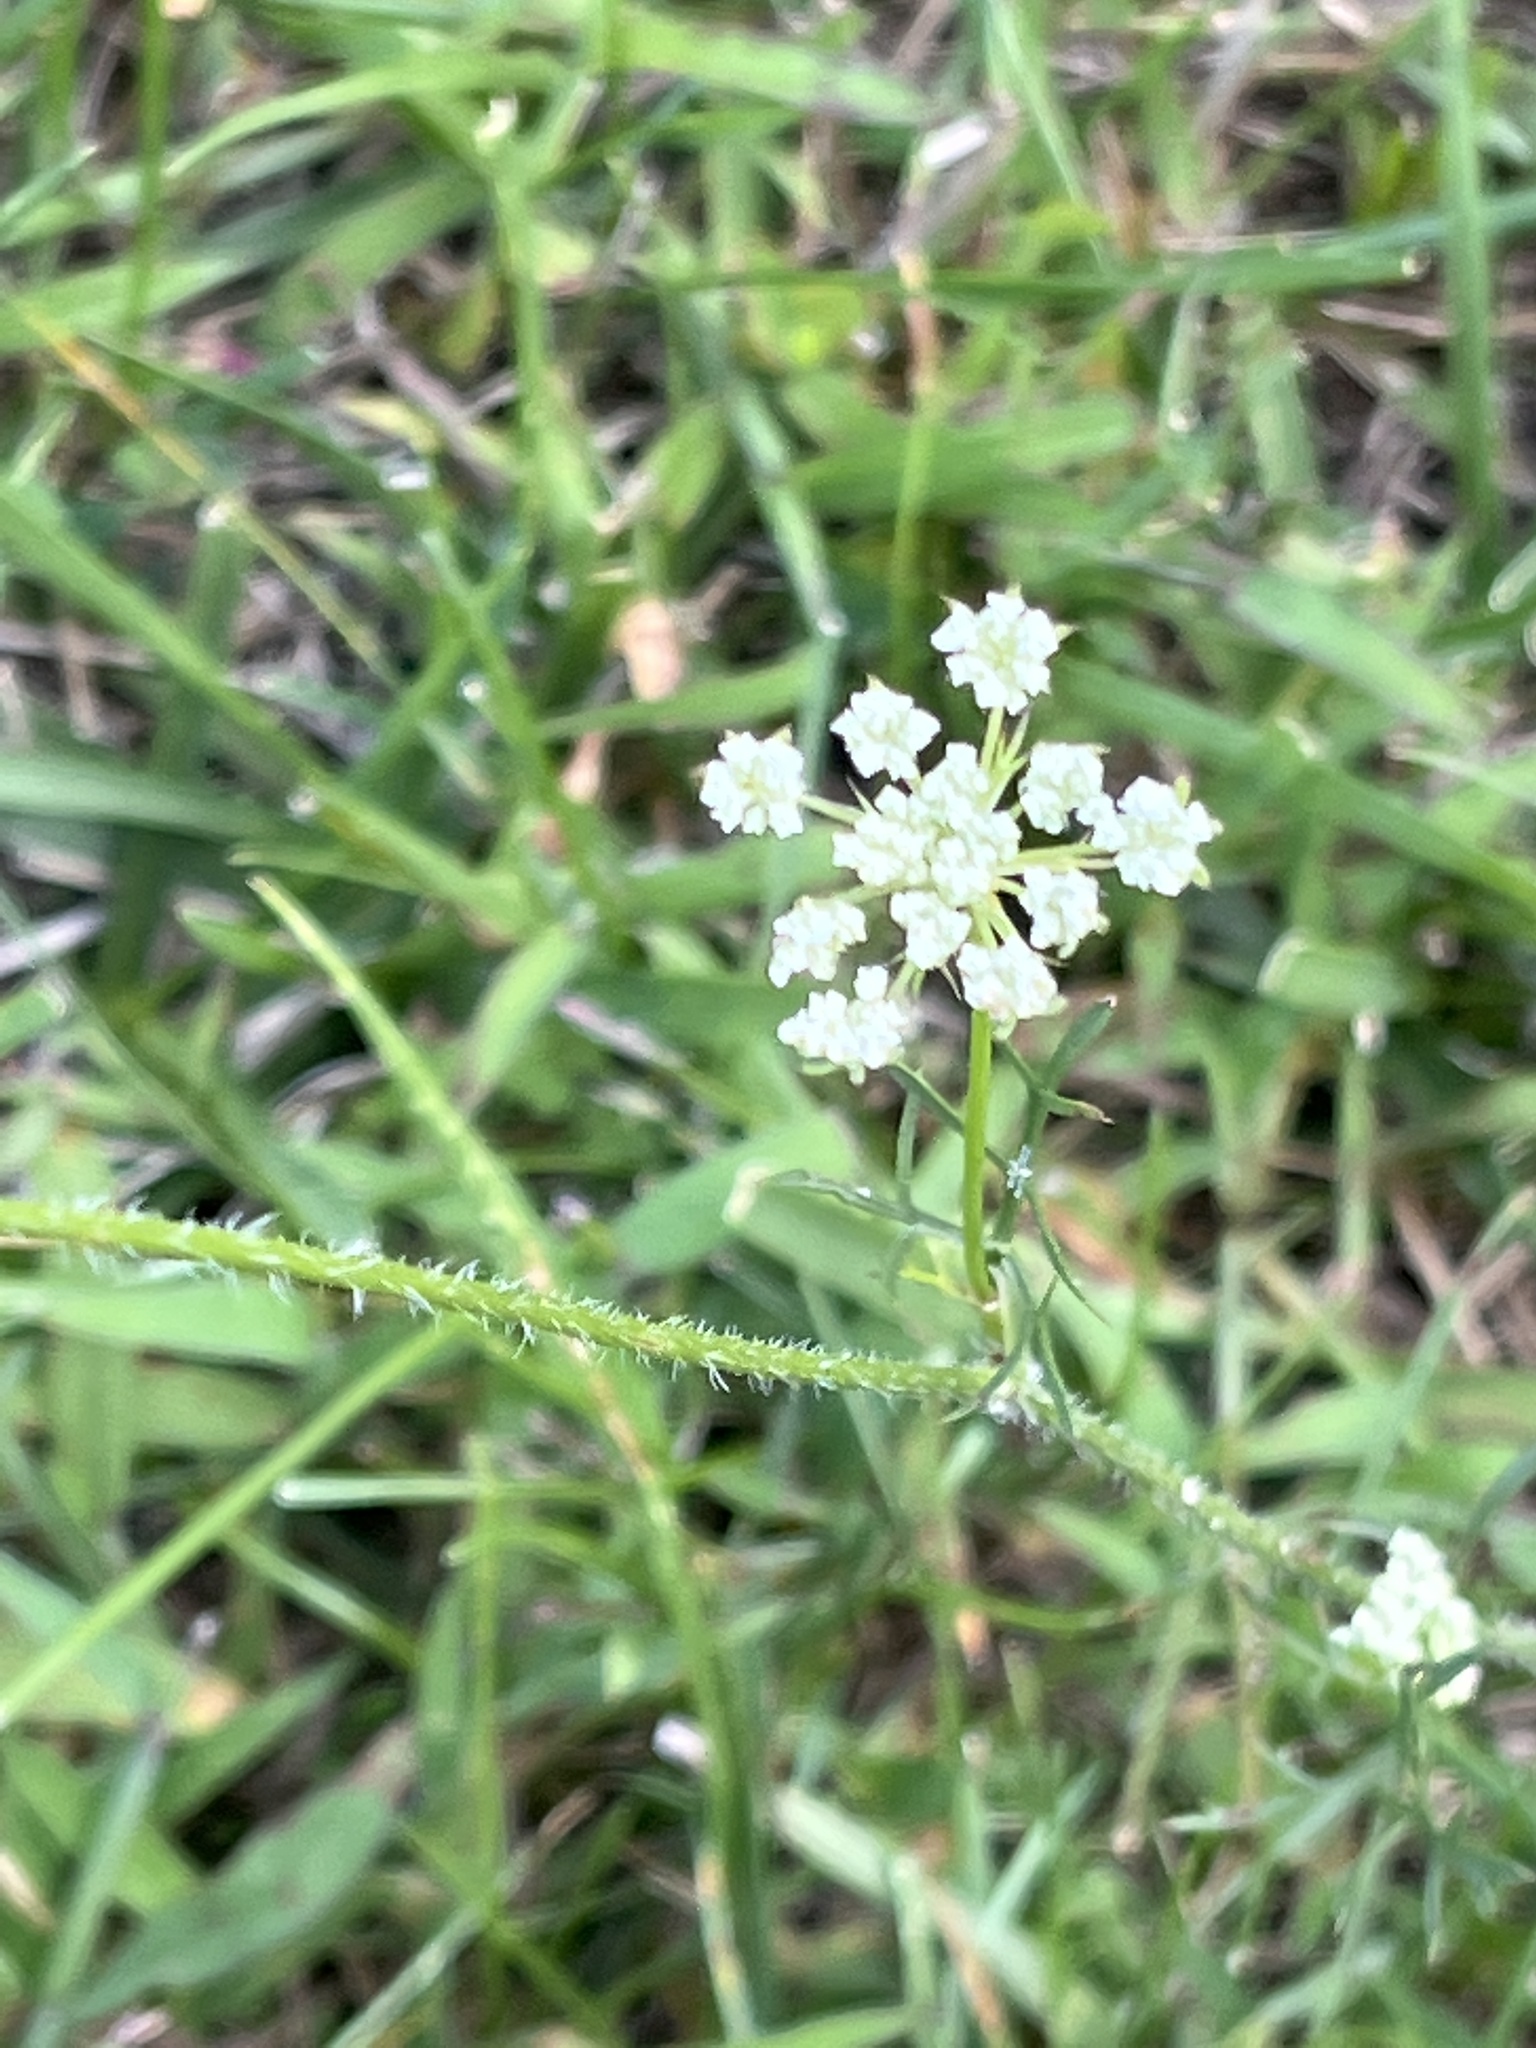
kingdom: Plantae
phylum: Tracheophyta
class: Magnoliopsida
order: Apiales
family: Apiaceae
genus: Daucus
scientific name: Daucus carota
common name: Wild carrot
